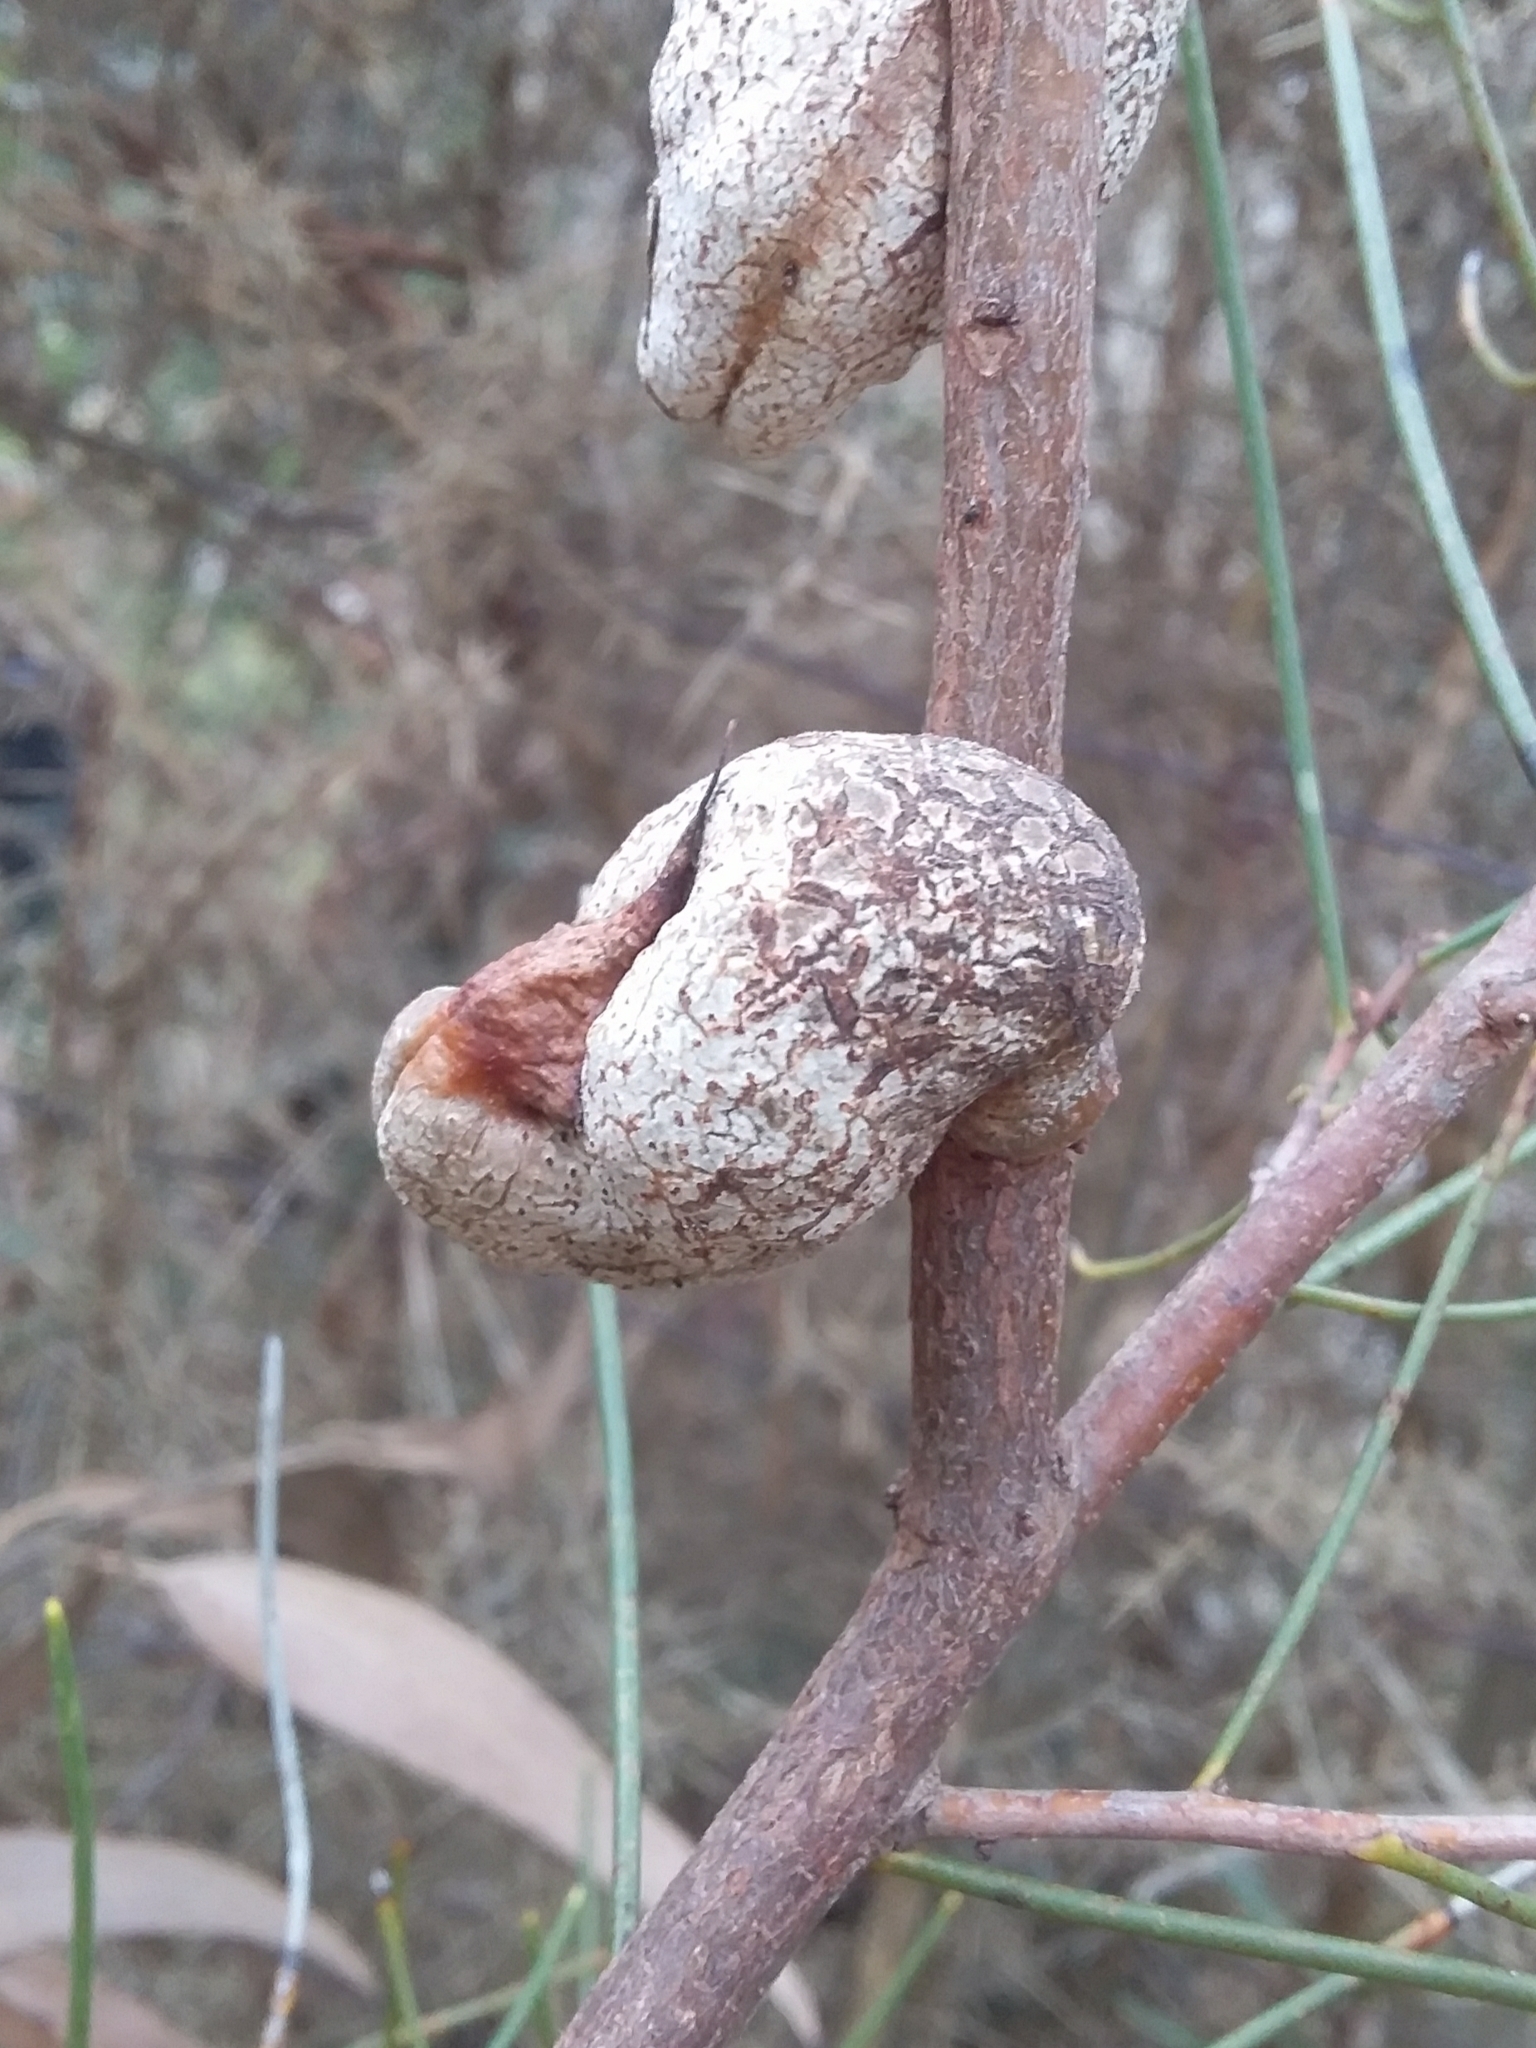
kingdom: Plantae
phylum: Tracheophyta
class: Magnoliopsida
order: Proteales
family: Proteaceae
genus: Hakea
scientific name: Hakea rostrata
